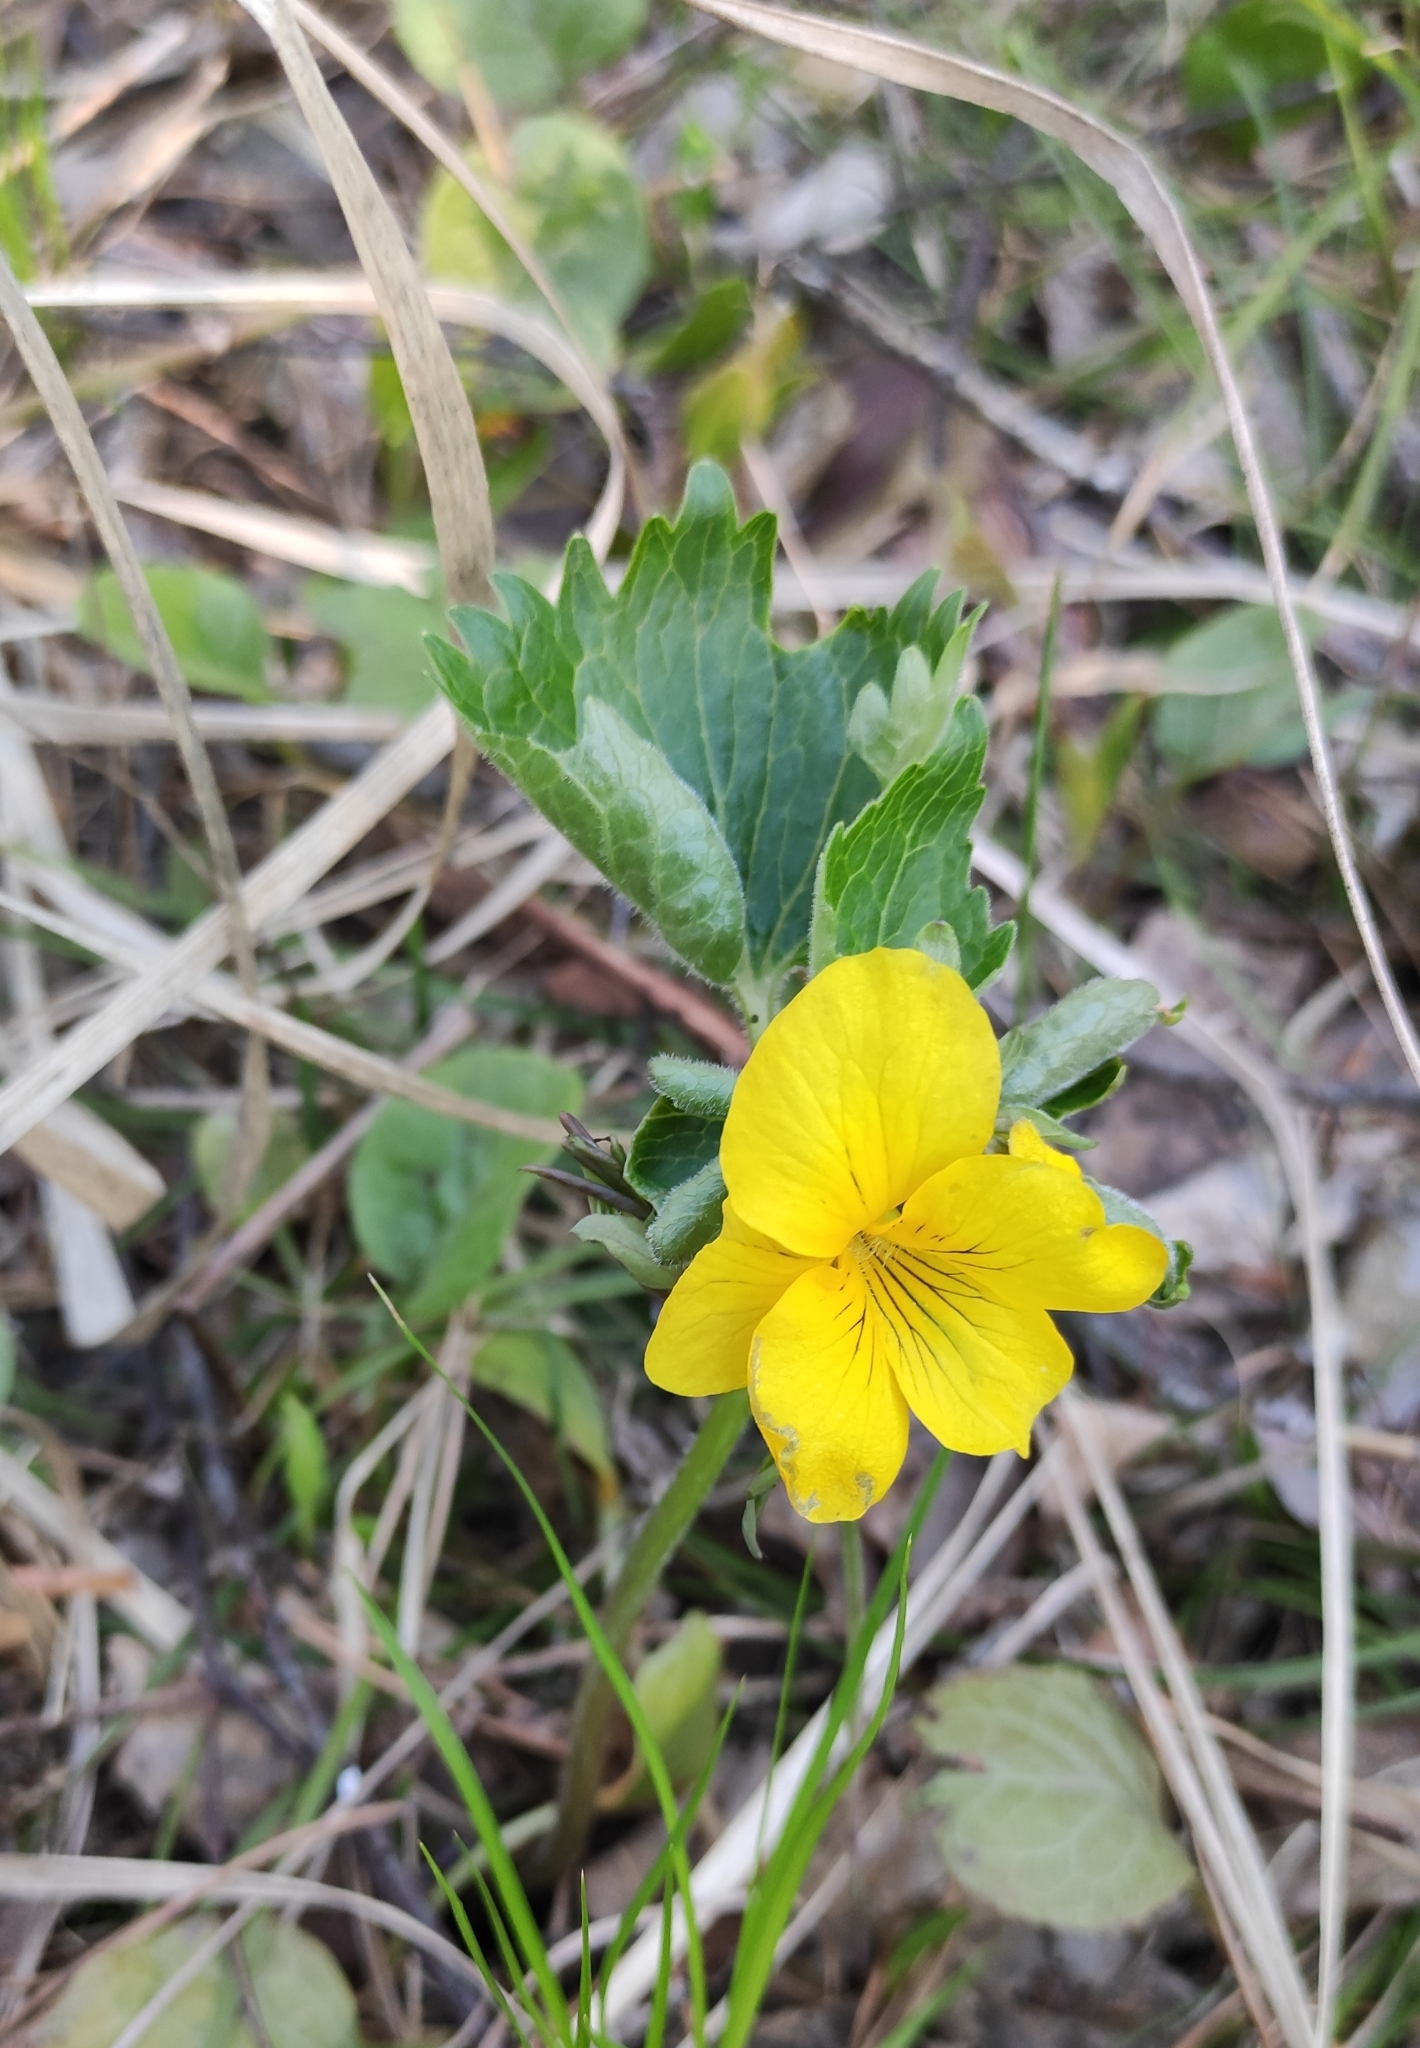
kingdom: Plantae
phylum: Tracheophyta
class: Magnoliopsida
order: Malpighiales
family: Violaceae
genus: Viola
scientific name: Viola uniflora
